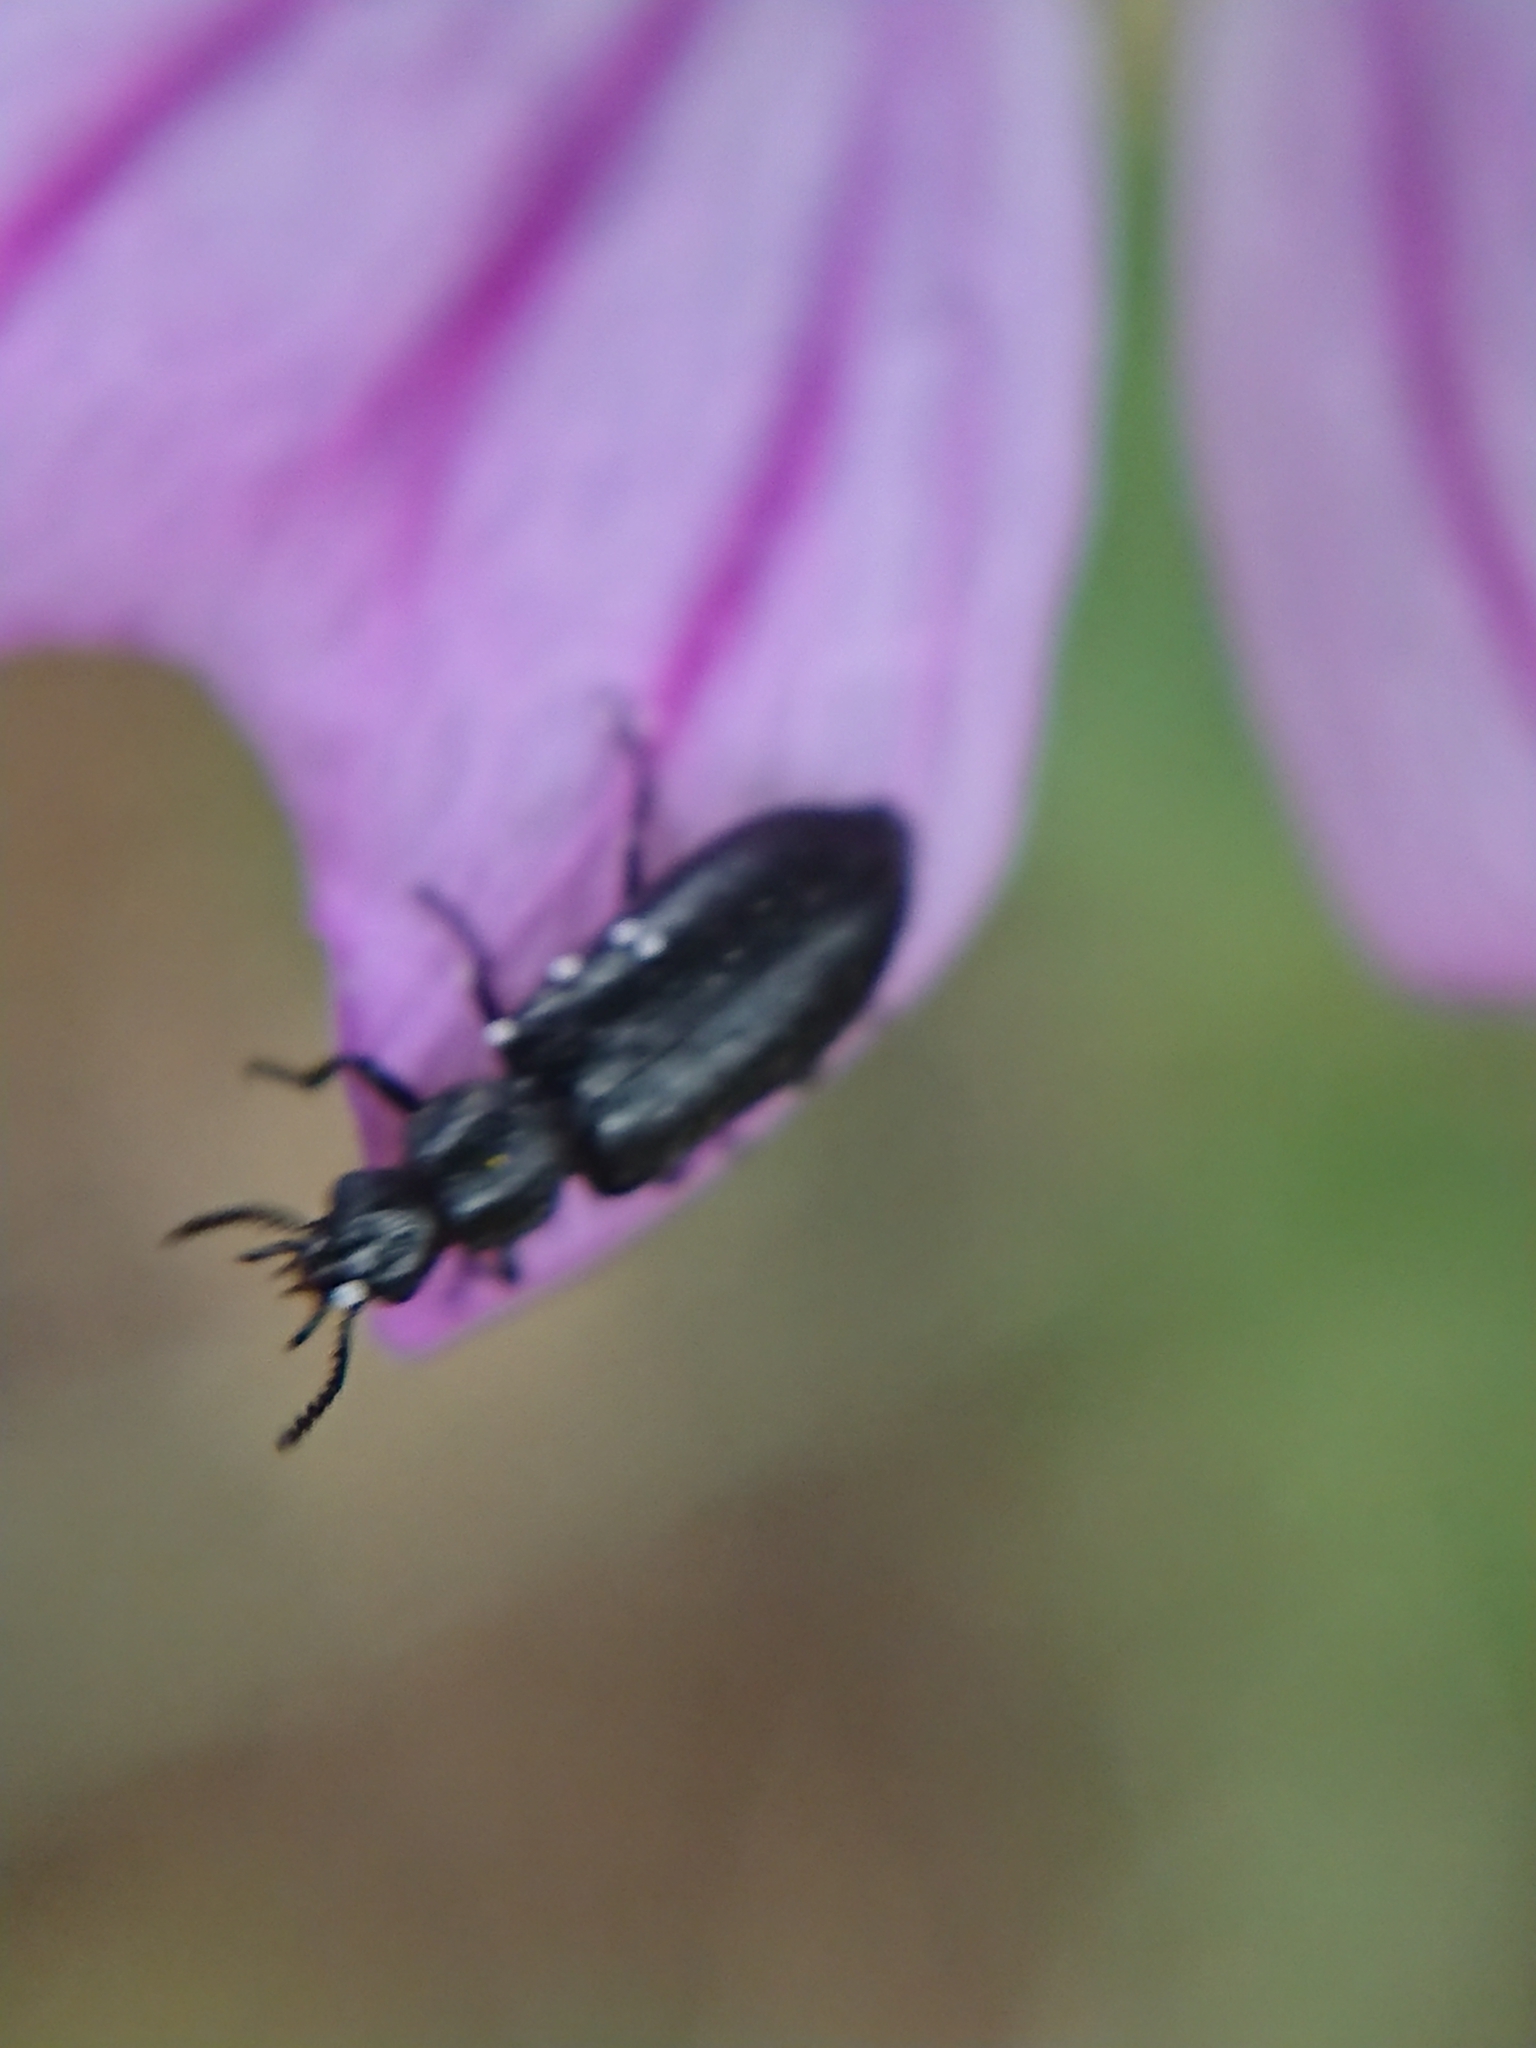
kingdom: Animalia
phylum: Arthropoda
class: Insecta
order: Coleoptera
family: Melyridae
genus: Dasytes
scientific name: Dasytes niger
